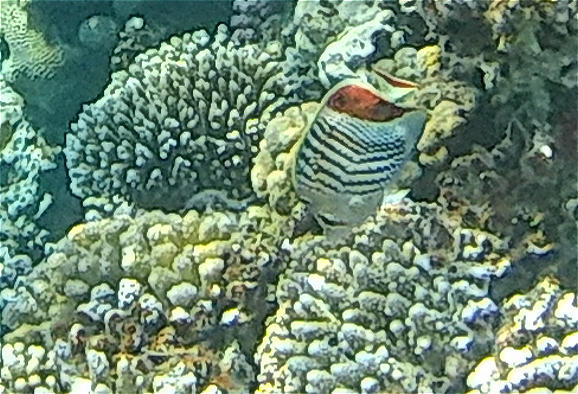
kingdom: Animalia
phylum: Chordata
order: Perciformes
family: Chaetodontidae
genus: Chaetodon
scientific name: Chaetodon paucifasciatus
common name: Crown butterflyfish
